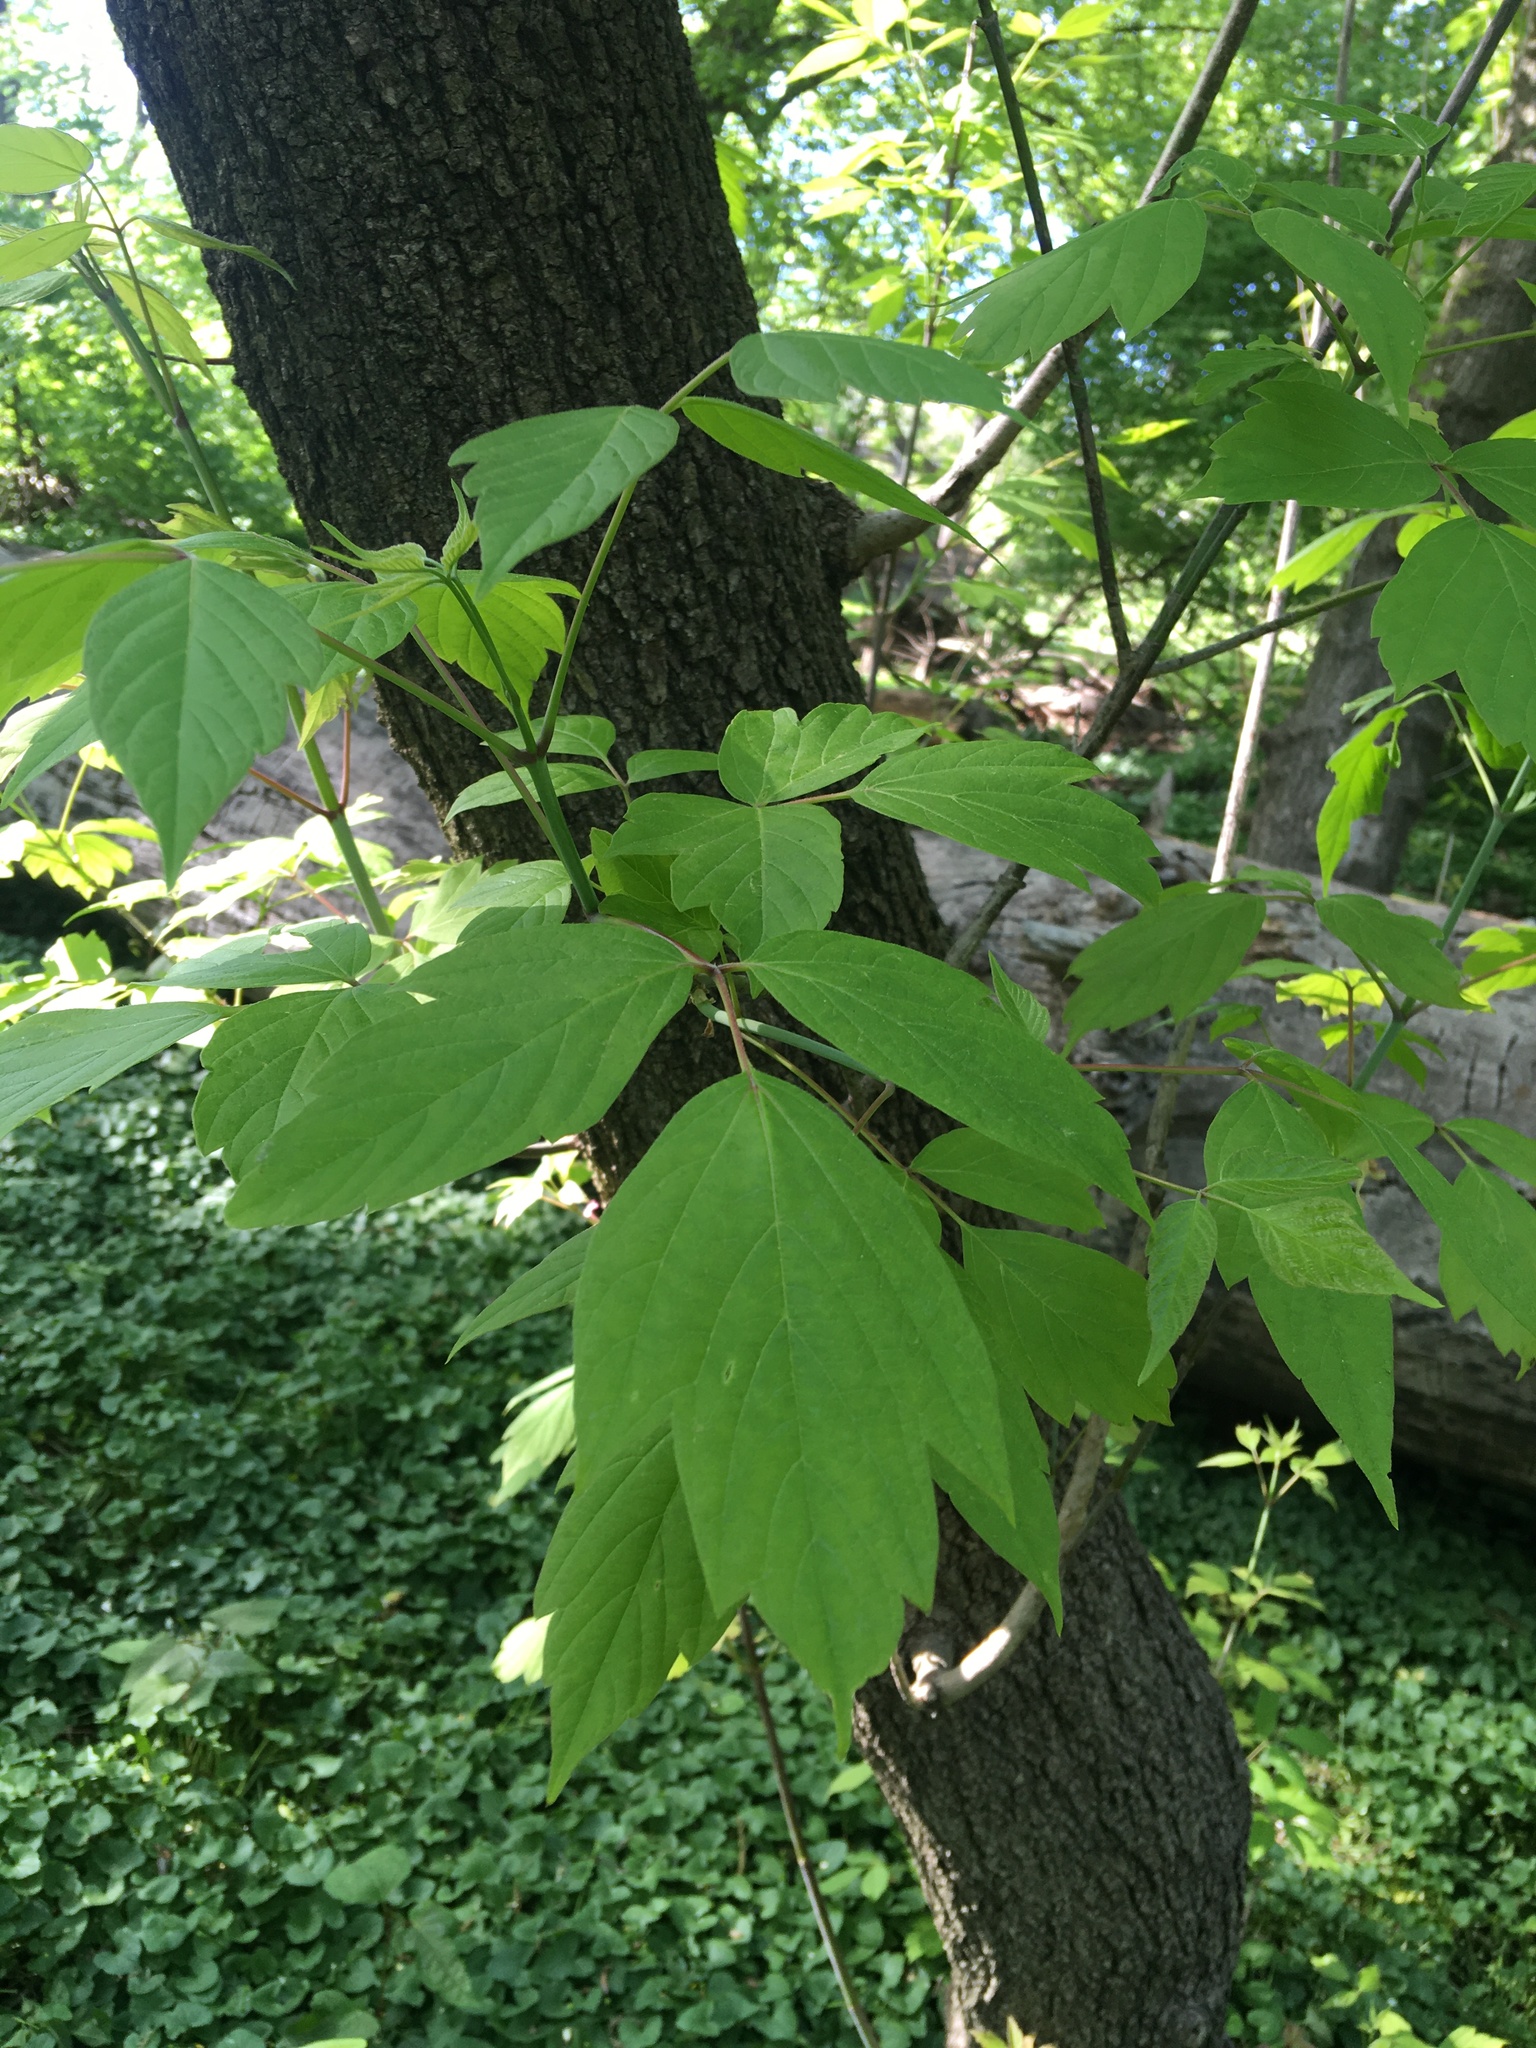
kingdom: Plantae
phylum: Tracheophyta
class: Magnoliopsida
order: Sapindales
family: Sapindaceae
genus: Acer
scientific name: Acer negundo
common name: Ashleaf maple
